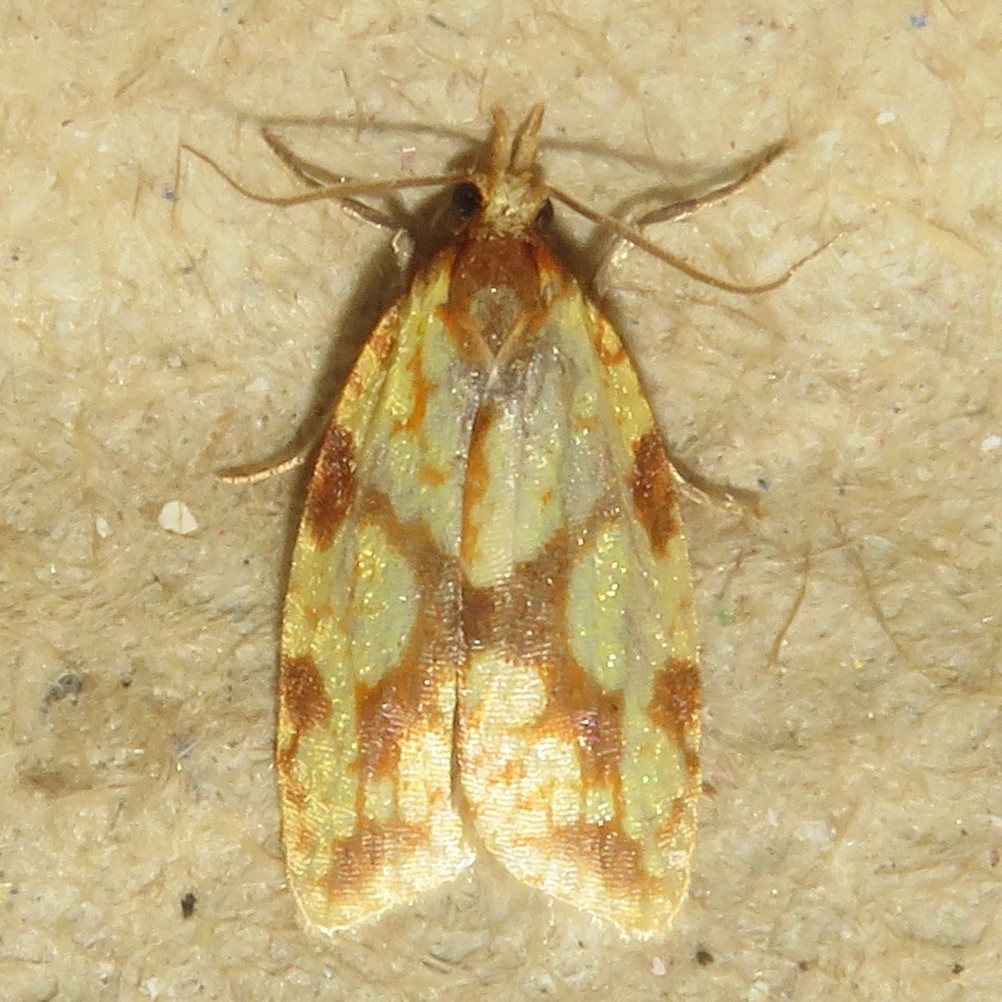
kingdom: Animalia
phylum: Arthropoda
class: Insecta
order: Lepidoptera
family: Tortricidae
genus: Sparganothis
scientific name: Sparganothis sulfureana
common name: Sparganothis fruitworm moth
